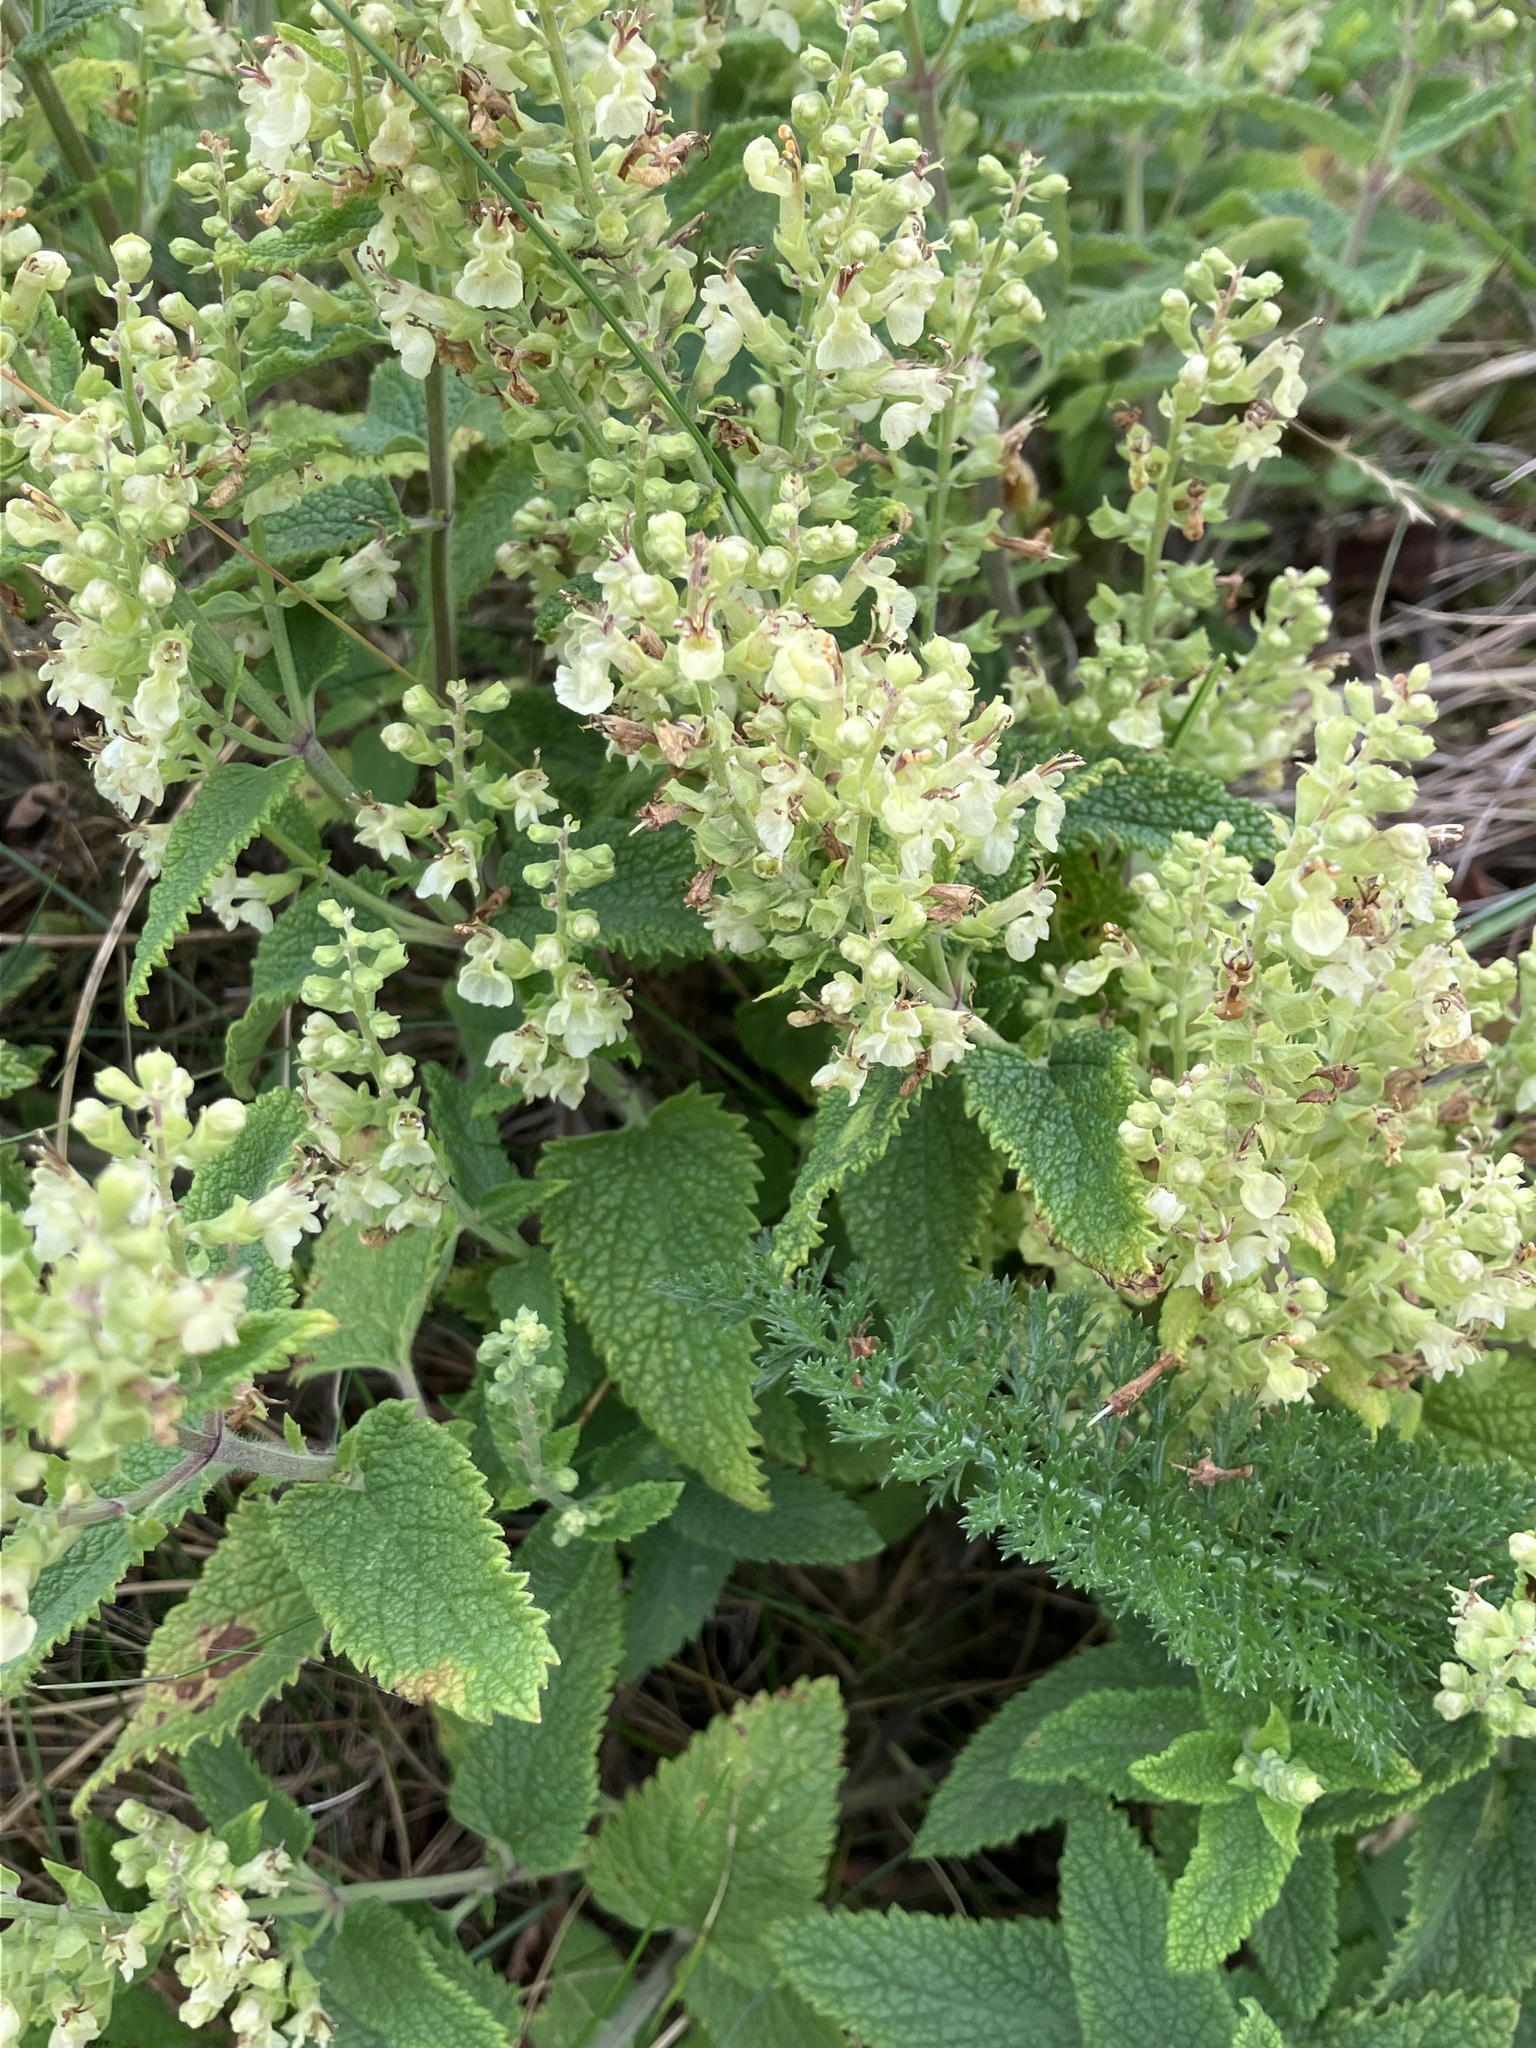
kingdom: Plantae
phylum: Tracheophyta
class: Magnoliopsida
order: Lamiales
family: Lamiaceae
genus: Teucrium
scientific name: Teucrium scorodonia
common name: Woodland germander
